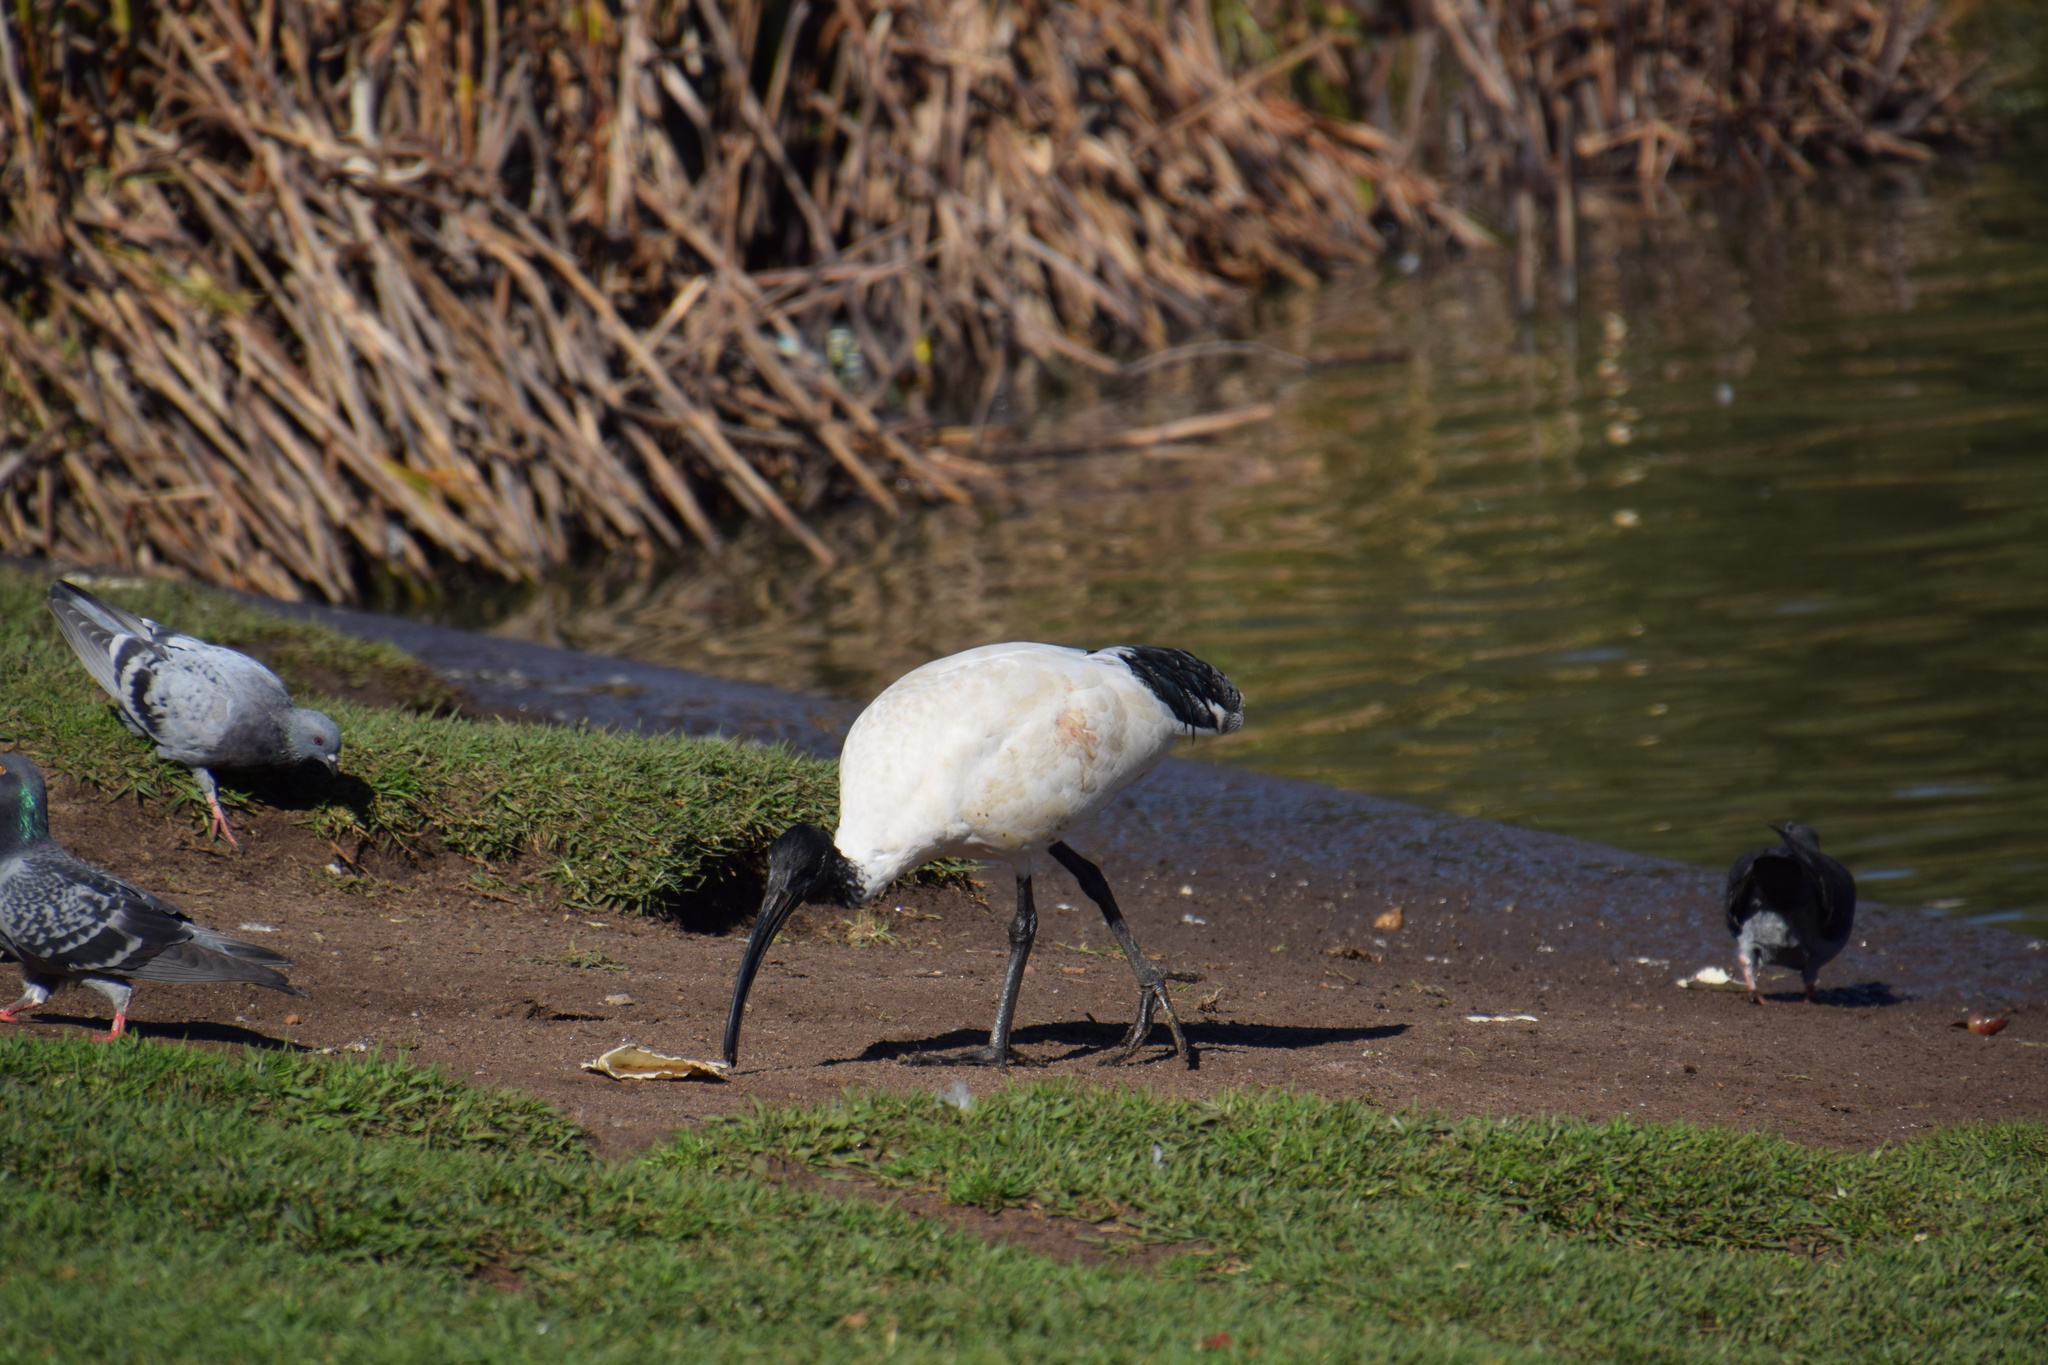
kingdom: Animalia
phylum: Chordata
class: Aves
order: Pelecaniformes
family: Threskiornithidae
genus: Threskiornis
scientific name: Threskiornis molucca
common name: Australian white ibis
